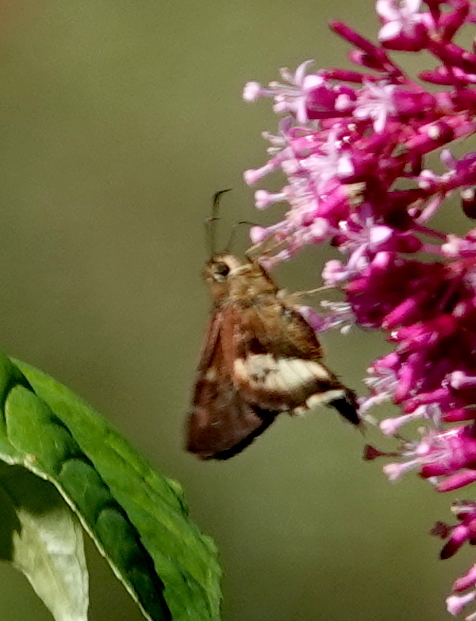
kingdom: Animalia
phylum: Arthropoda
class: Insecta
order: Lepidoptera
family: Hesperiidae
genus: Zestusa
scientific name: Zestusa levona
